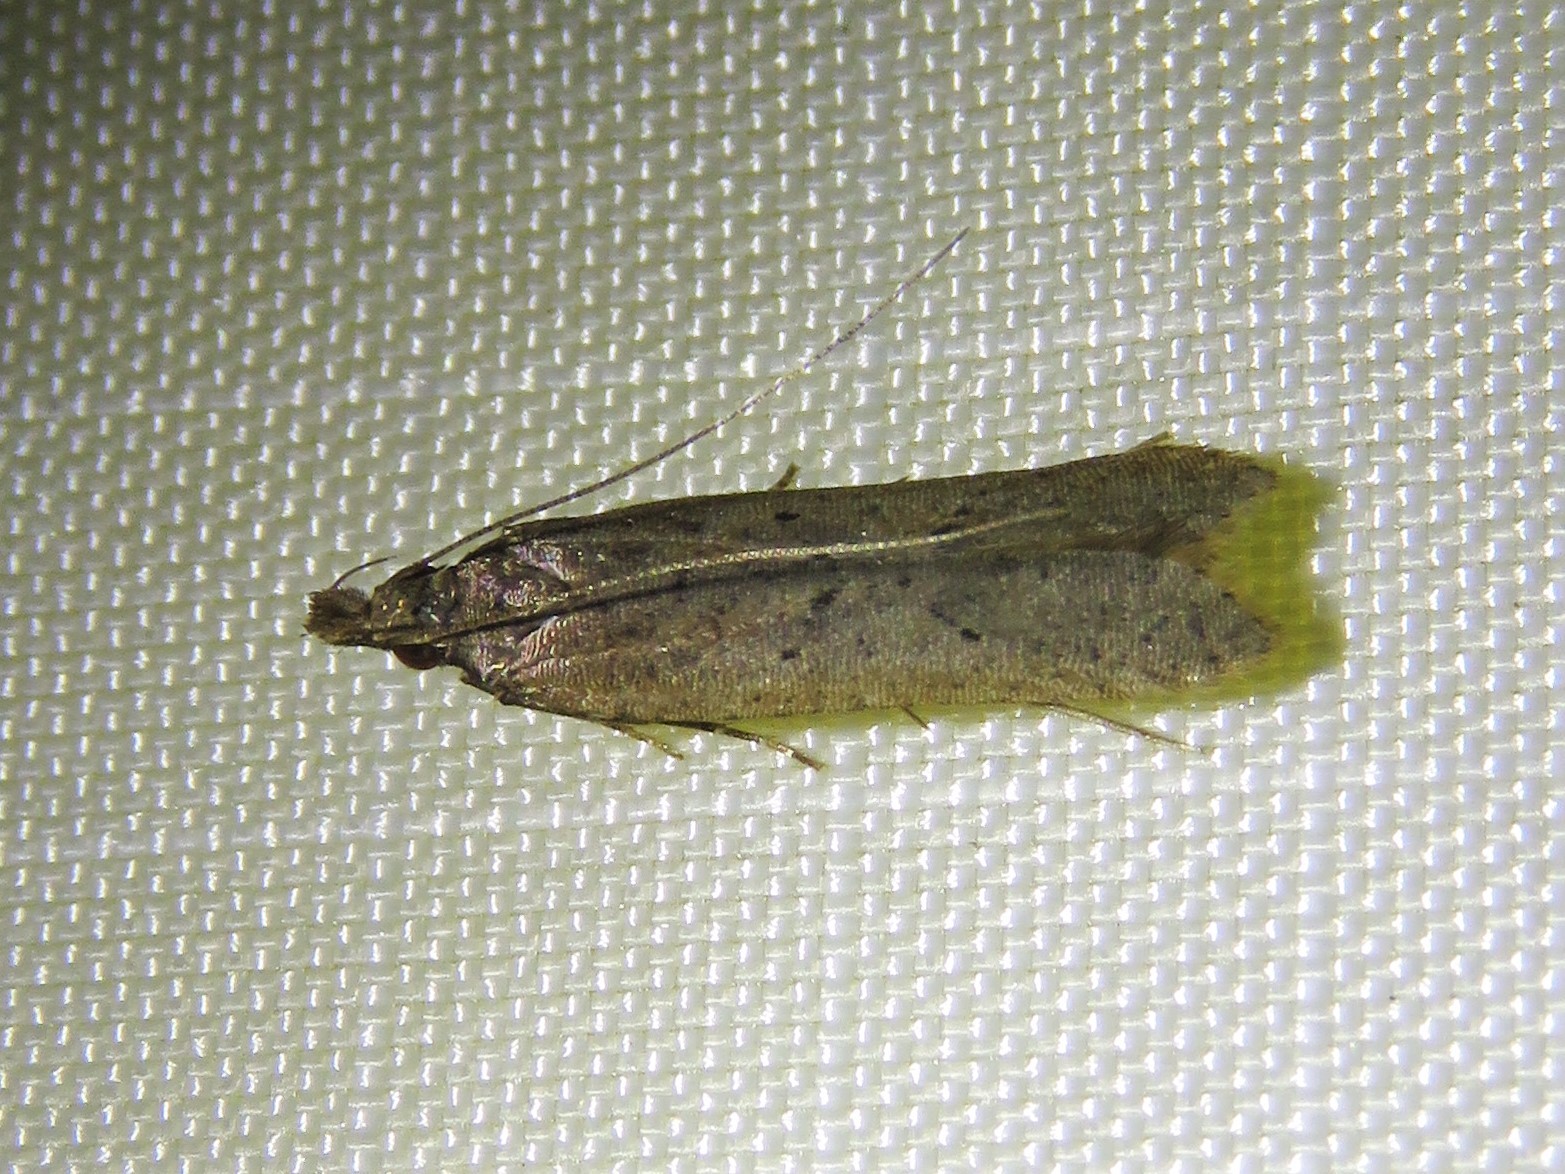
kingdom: Animalia
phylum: Arthropoda
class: Insecta
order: Lepidoptera
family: Gelechiidae
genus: Dichomeris
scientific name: Dichomeris ligulella
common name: Moth
